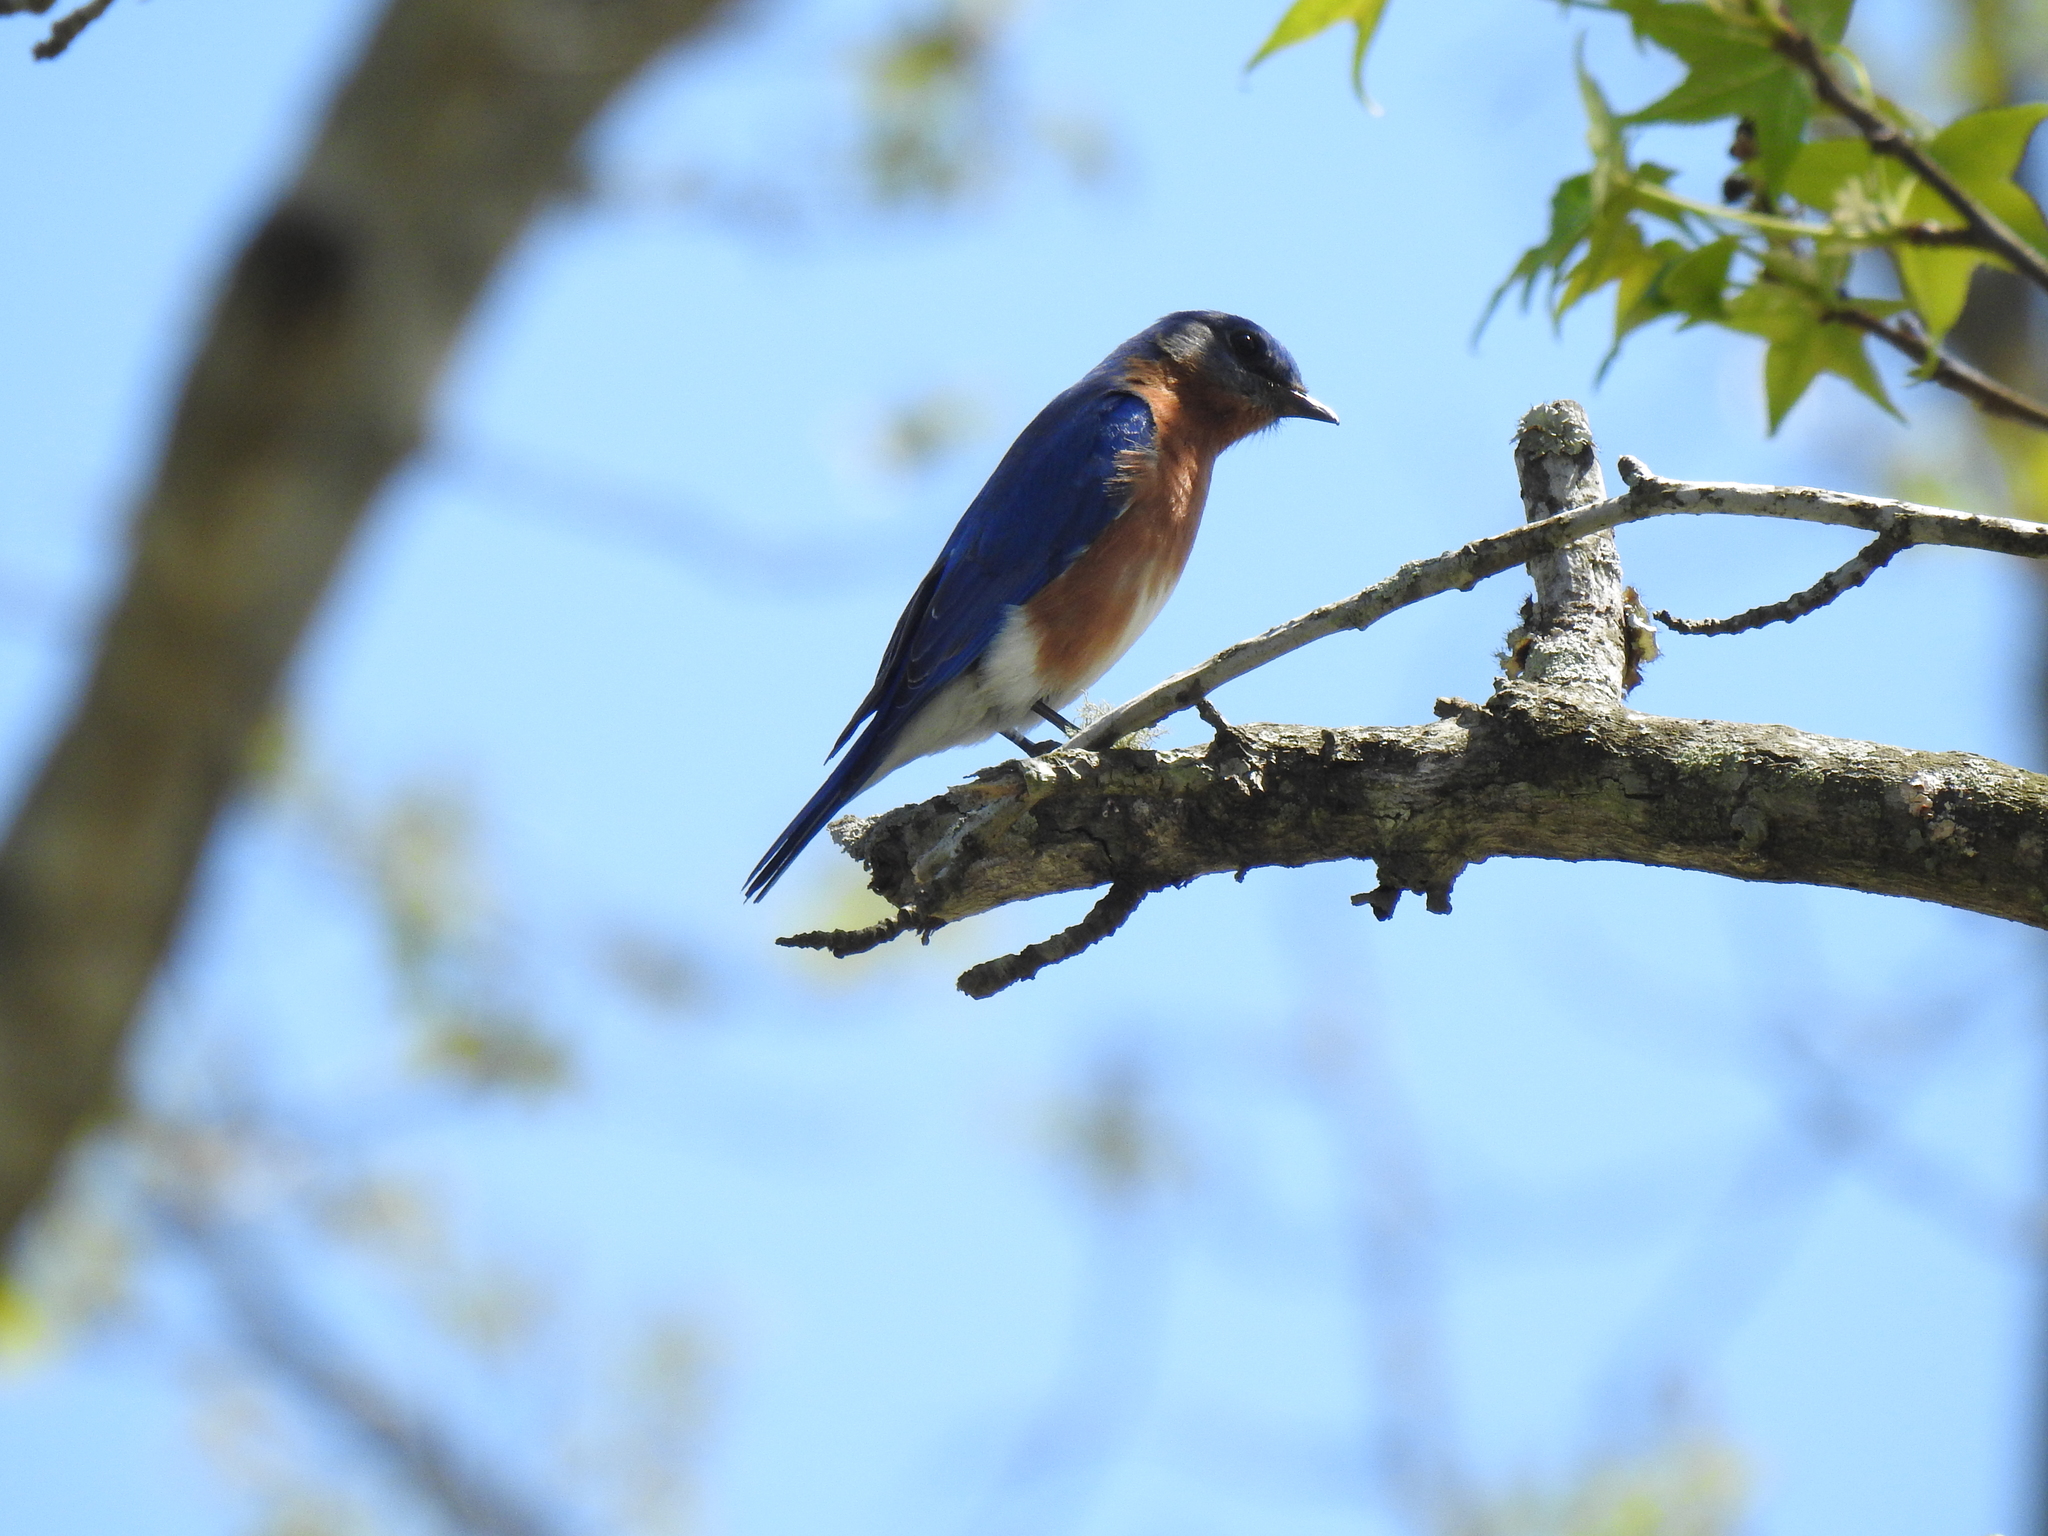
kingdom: Animalia
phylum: Chordata
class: Aves
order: Passeriformes
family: Turdidae
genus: Sialia
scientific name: Sialia sialis
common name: Eastern bluebird
